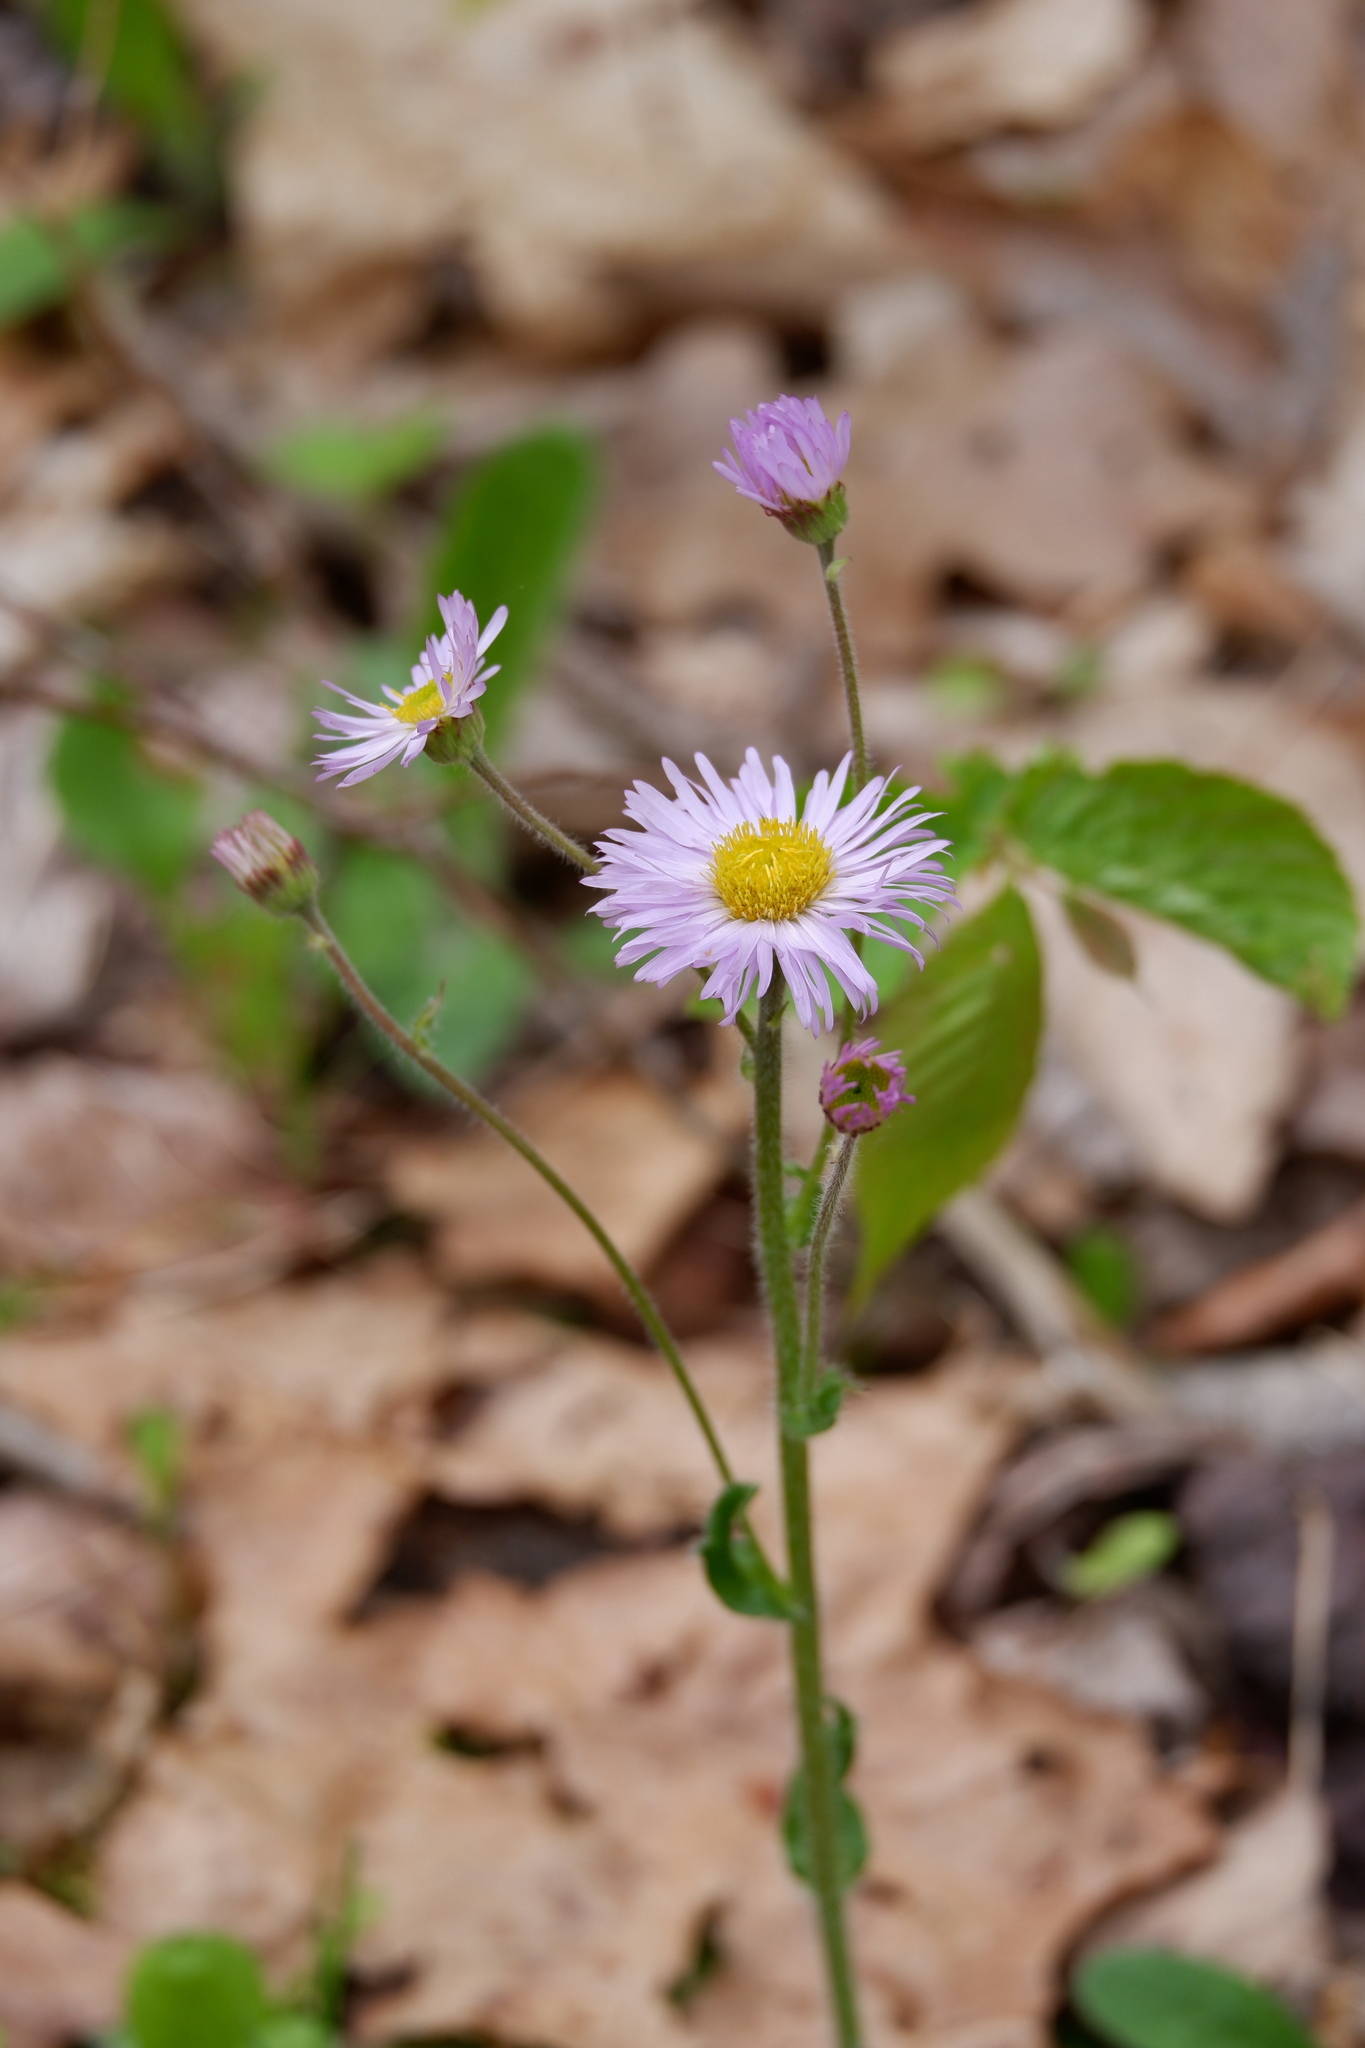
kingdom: Plantae
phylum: Tracheophyta
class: Magnoliopsida
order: Asterales
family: Asteraceae
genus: Erigeron
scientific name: Erigeron pulchellus
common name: Hairy fleabane
